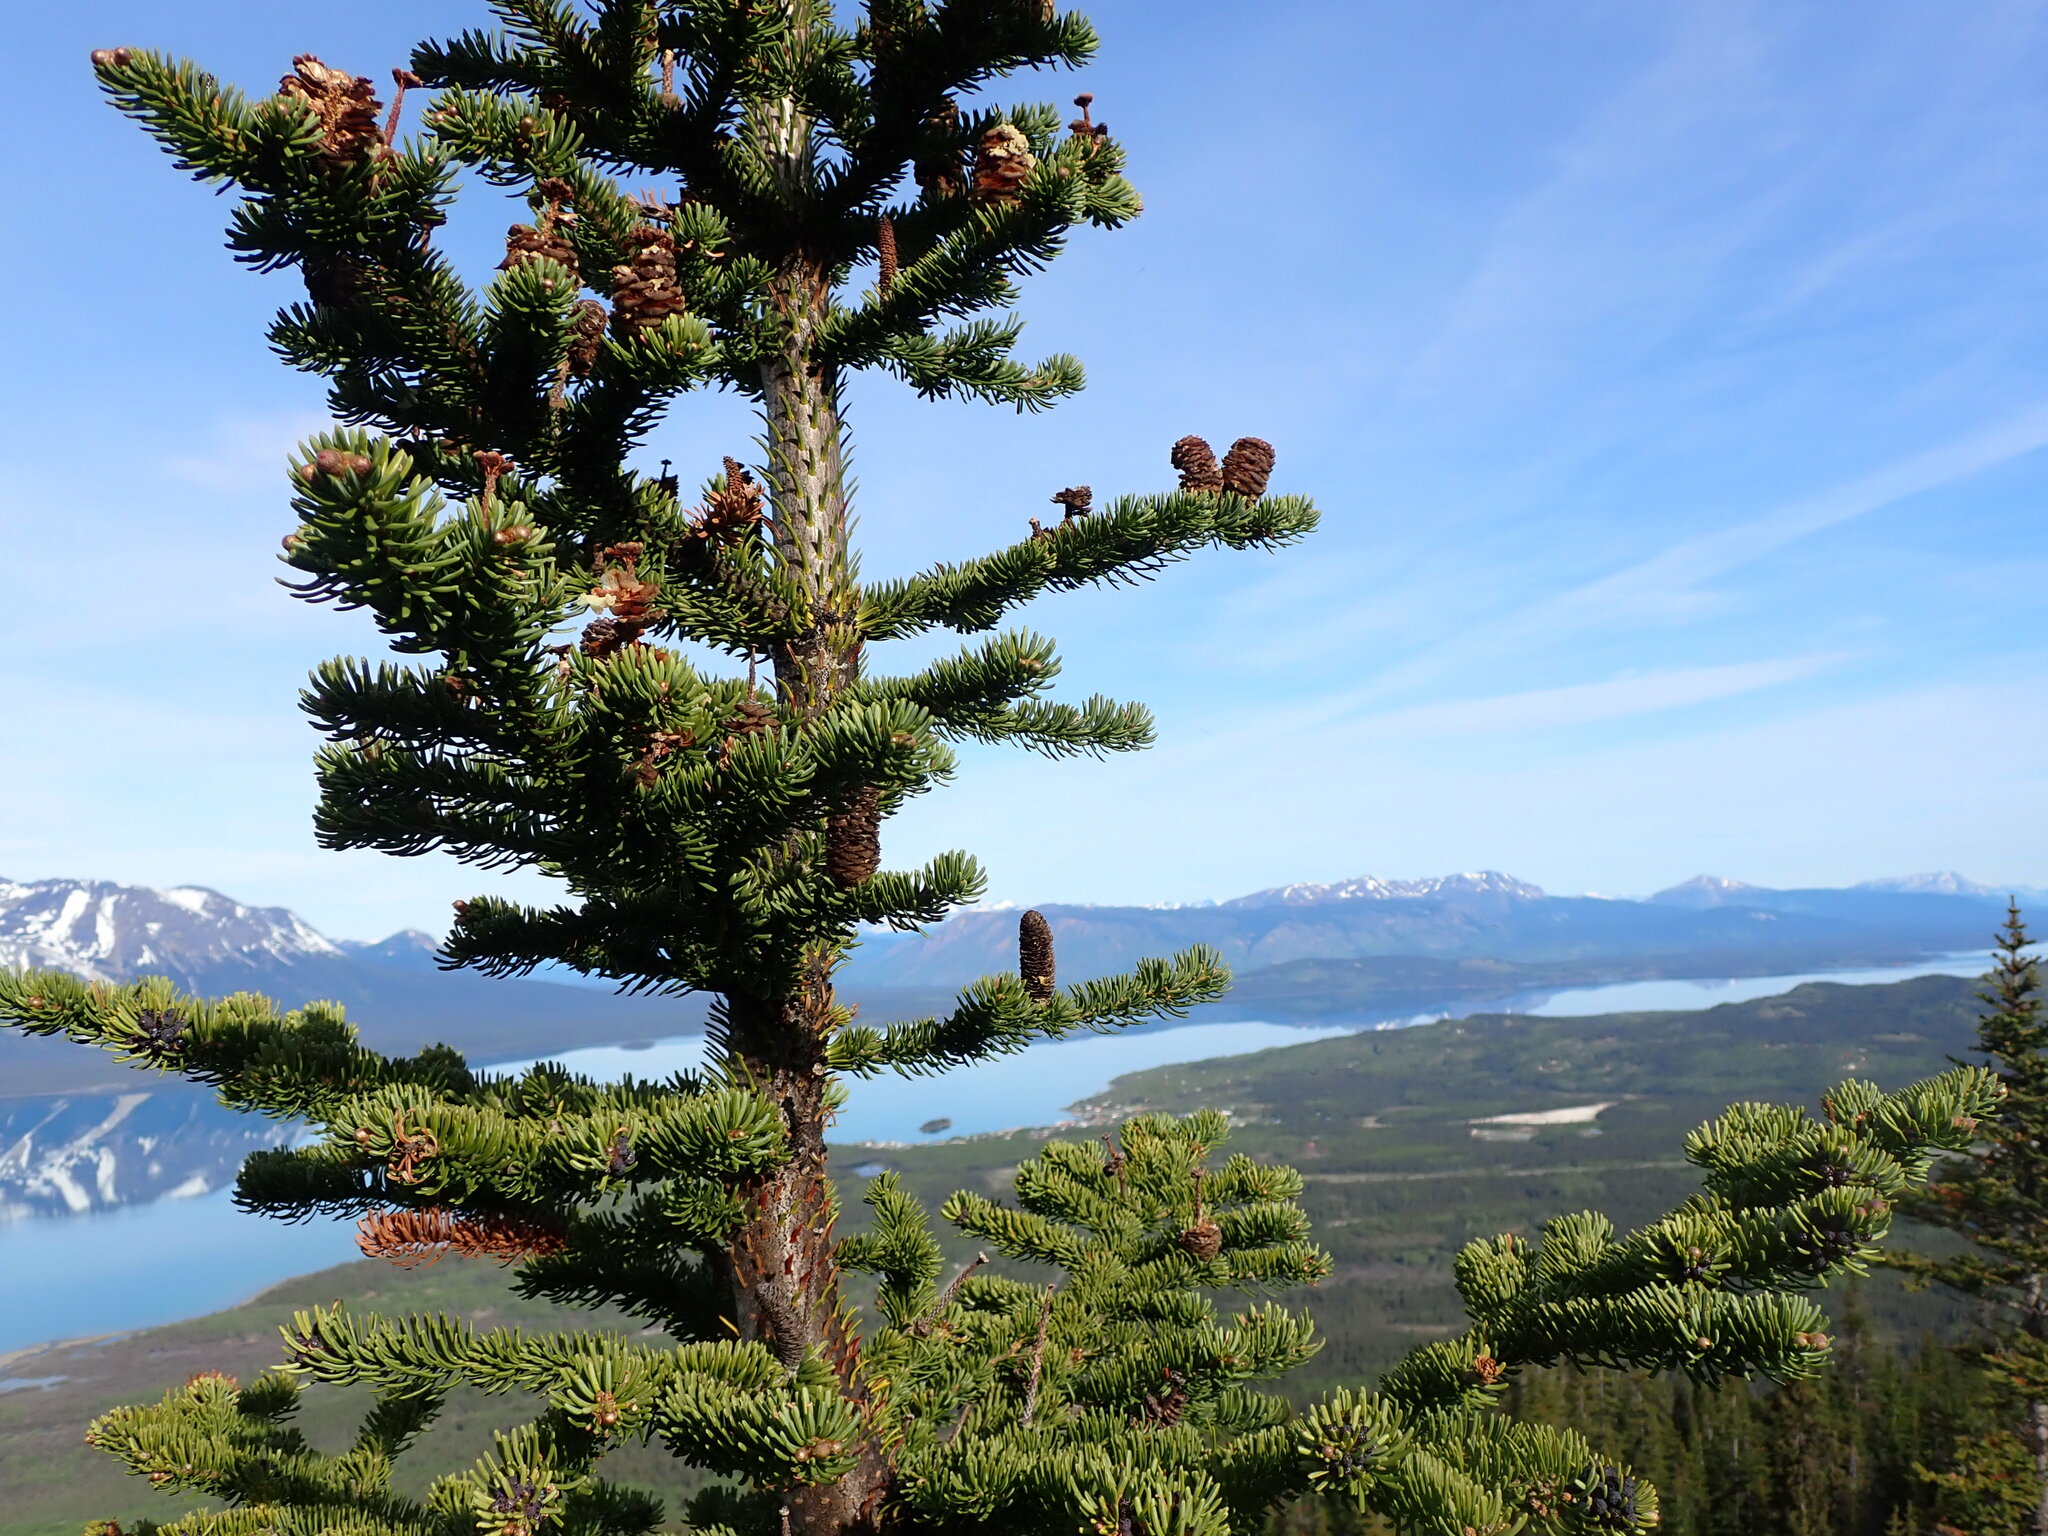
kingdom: Plantae
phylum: Tracheophyta
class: Pinopsida
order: Pinales
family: Pinaceae
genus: Abies
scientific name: Abies lasiocarpa
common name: Subalpine fir
